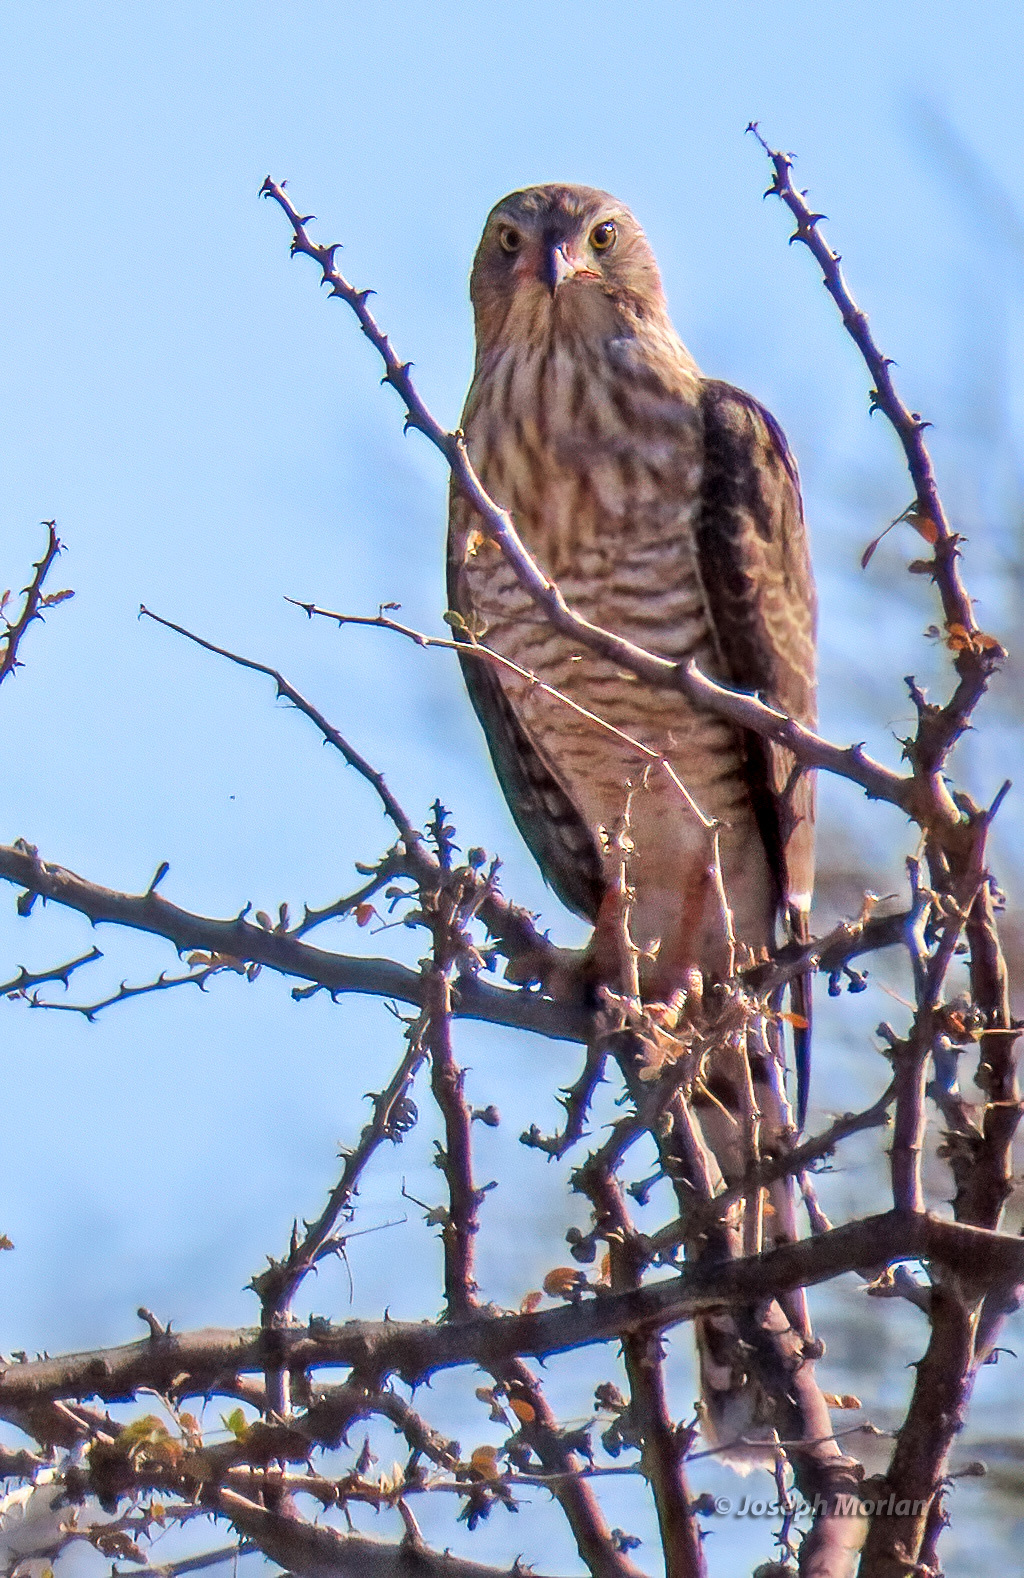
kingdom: Animalia
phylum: Chordata
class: Aves
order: Accipitriformes
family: Accipitridae
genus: Micronisus
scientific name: Micronisus gabar
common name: Gabar goshawk
